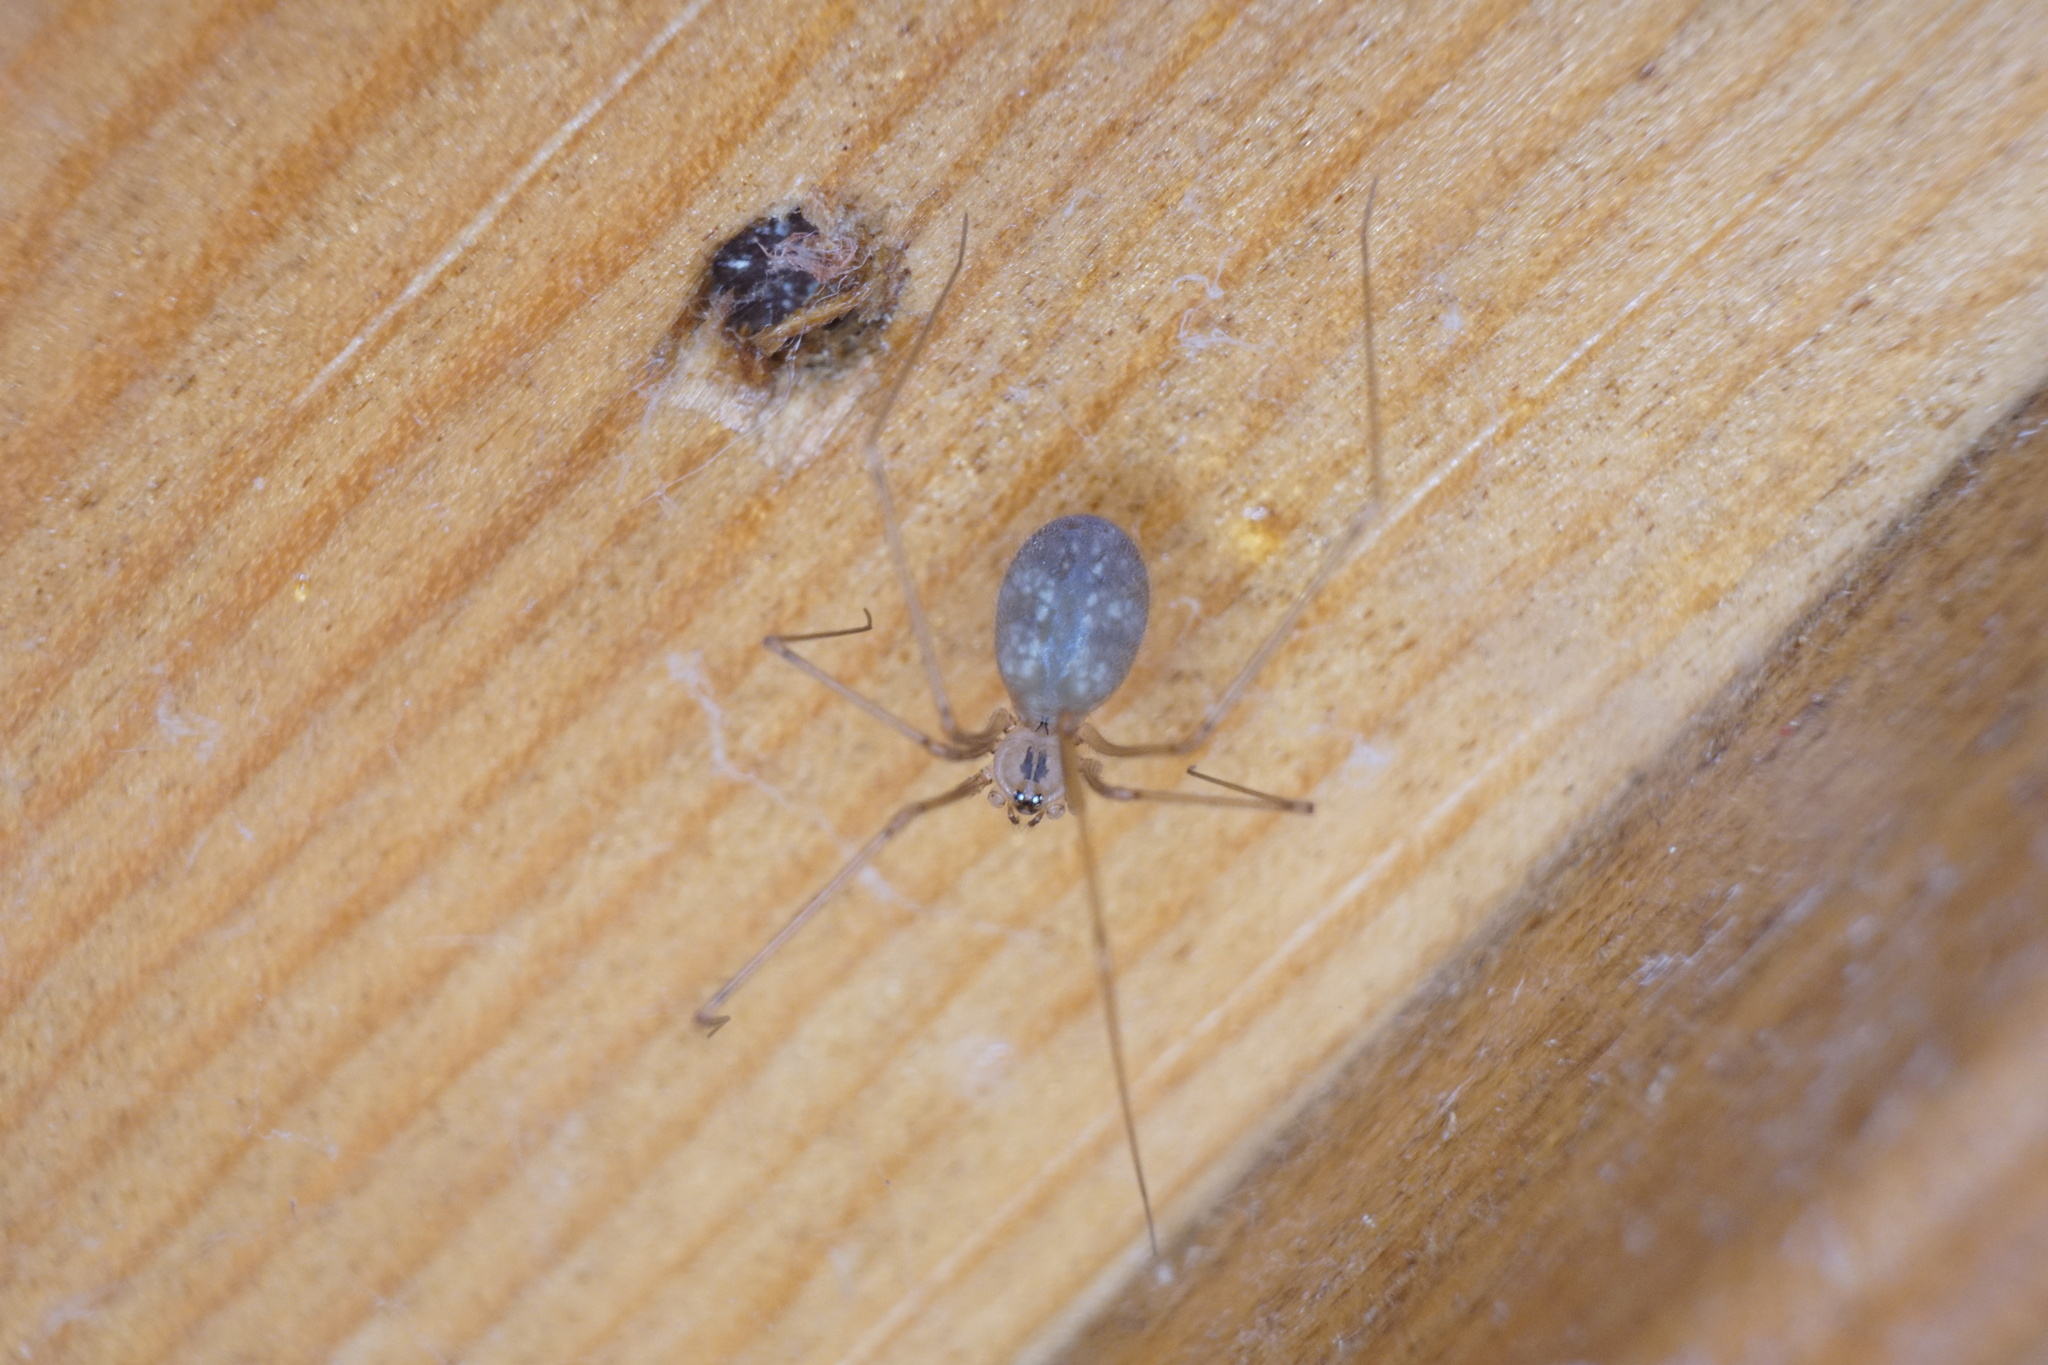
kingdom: Animalia
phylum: Arthropoda
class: Arachnida
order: Araneae
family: Pholcidae
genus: Pholcus
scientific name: Pholcus manueli
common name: Cellar spider
